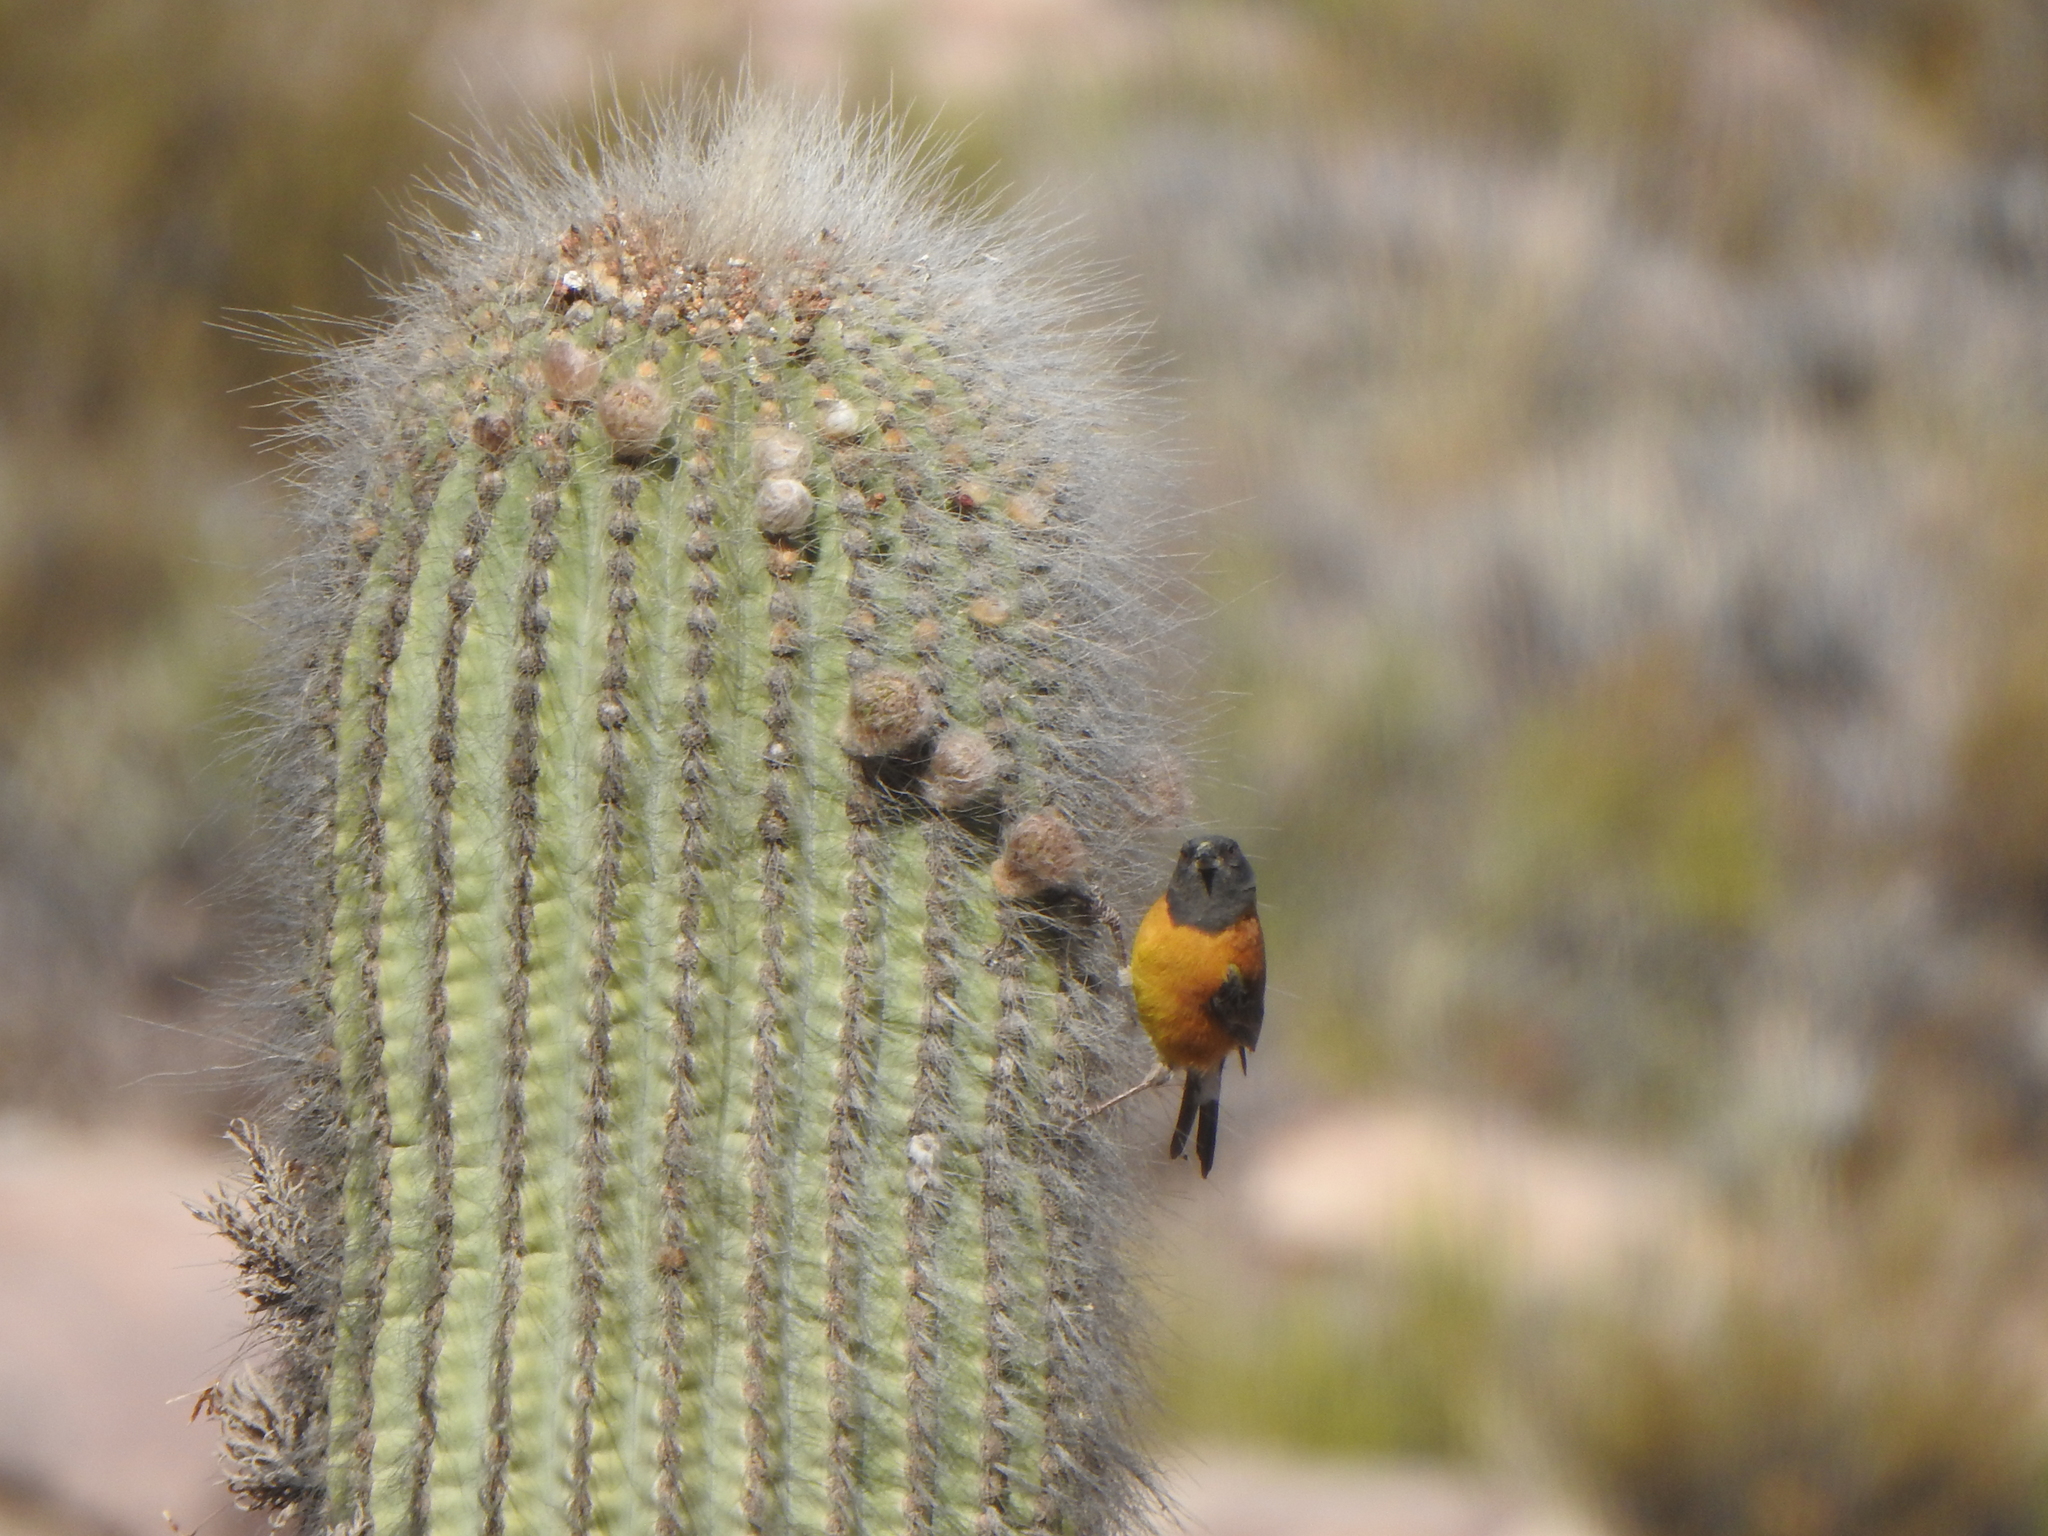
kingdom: Animalia
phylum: Chordata
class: Aves
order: Passeriformes
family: Thraupidae
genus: Phrygilus
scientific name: Phrygilus atriceps
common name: Black-hooded sierra finch
